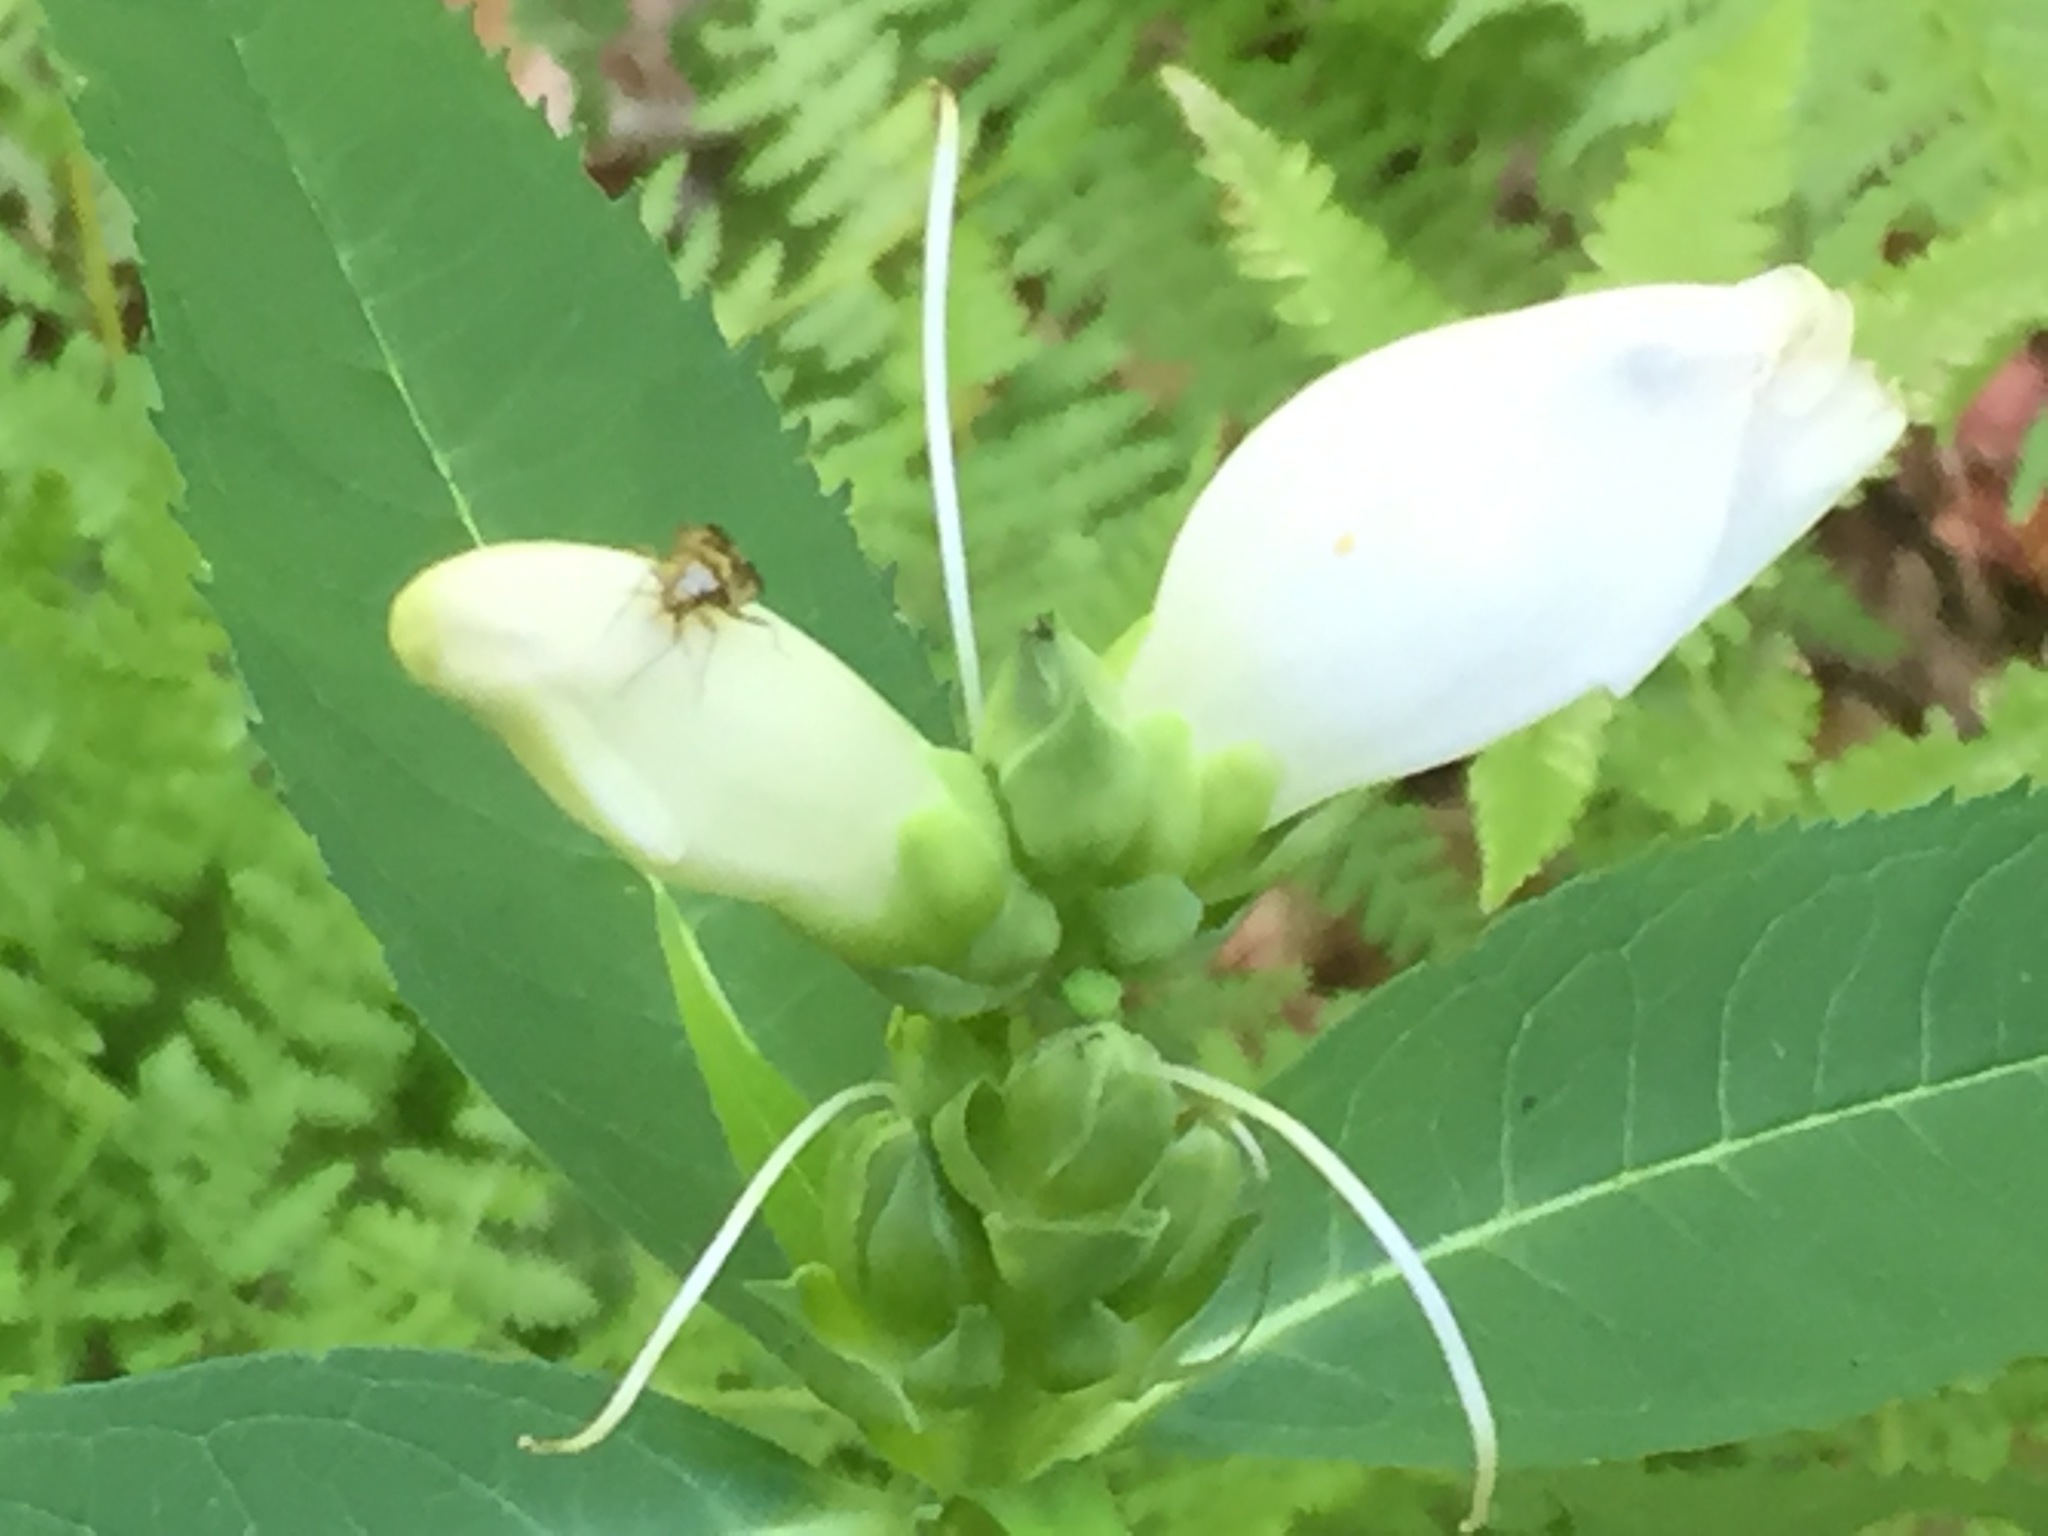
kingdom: Plantae
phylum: Tracheophyta
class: Magnoliopsida
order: Lamiales
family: Plantaginaceae
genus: Chelone
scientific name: Chelone glabra
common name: Snakehead
